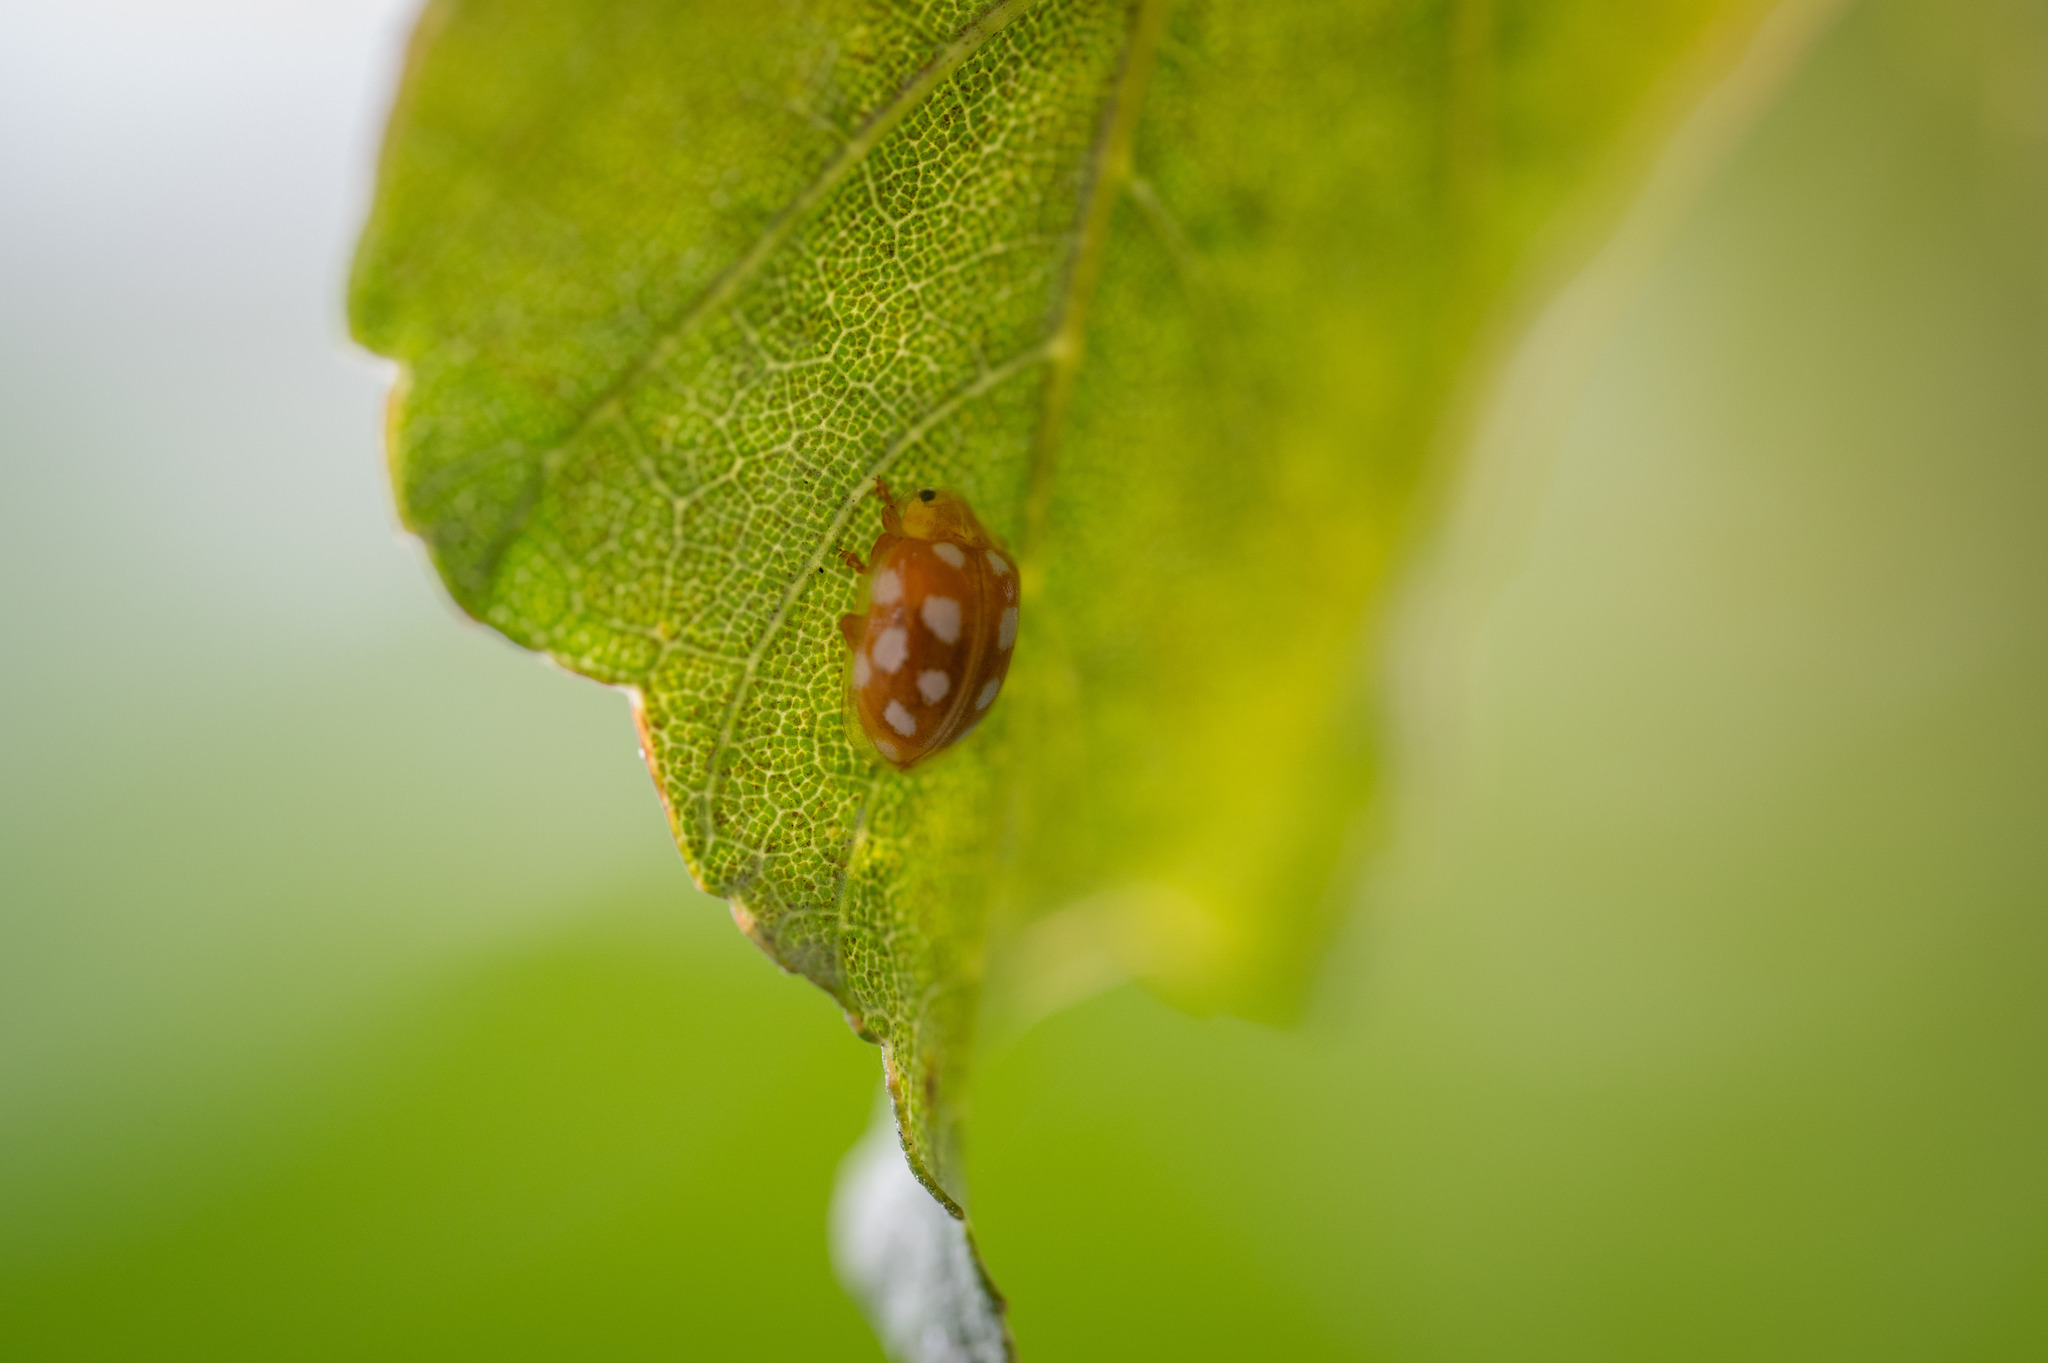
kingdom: Animalia
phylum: Arthropoda
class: Insecta
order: Coleoptera
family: Coccinellidae
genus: Halyzia
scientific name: Halyzia sedecimguttata
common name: Orange ladybird
